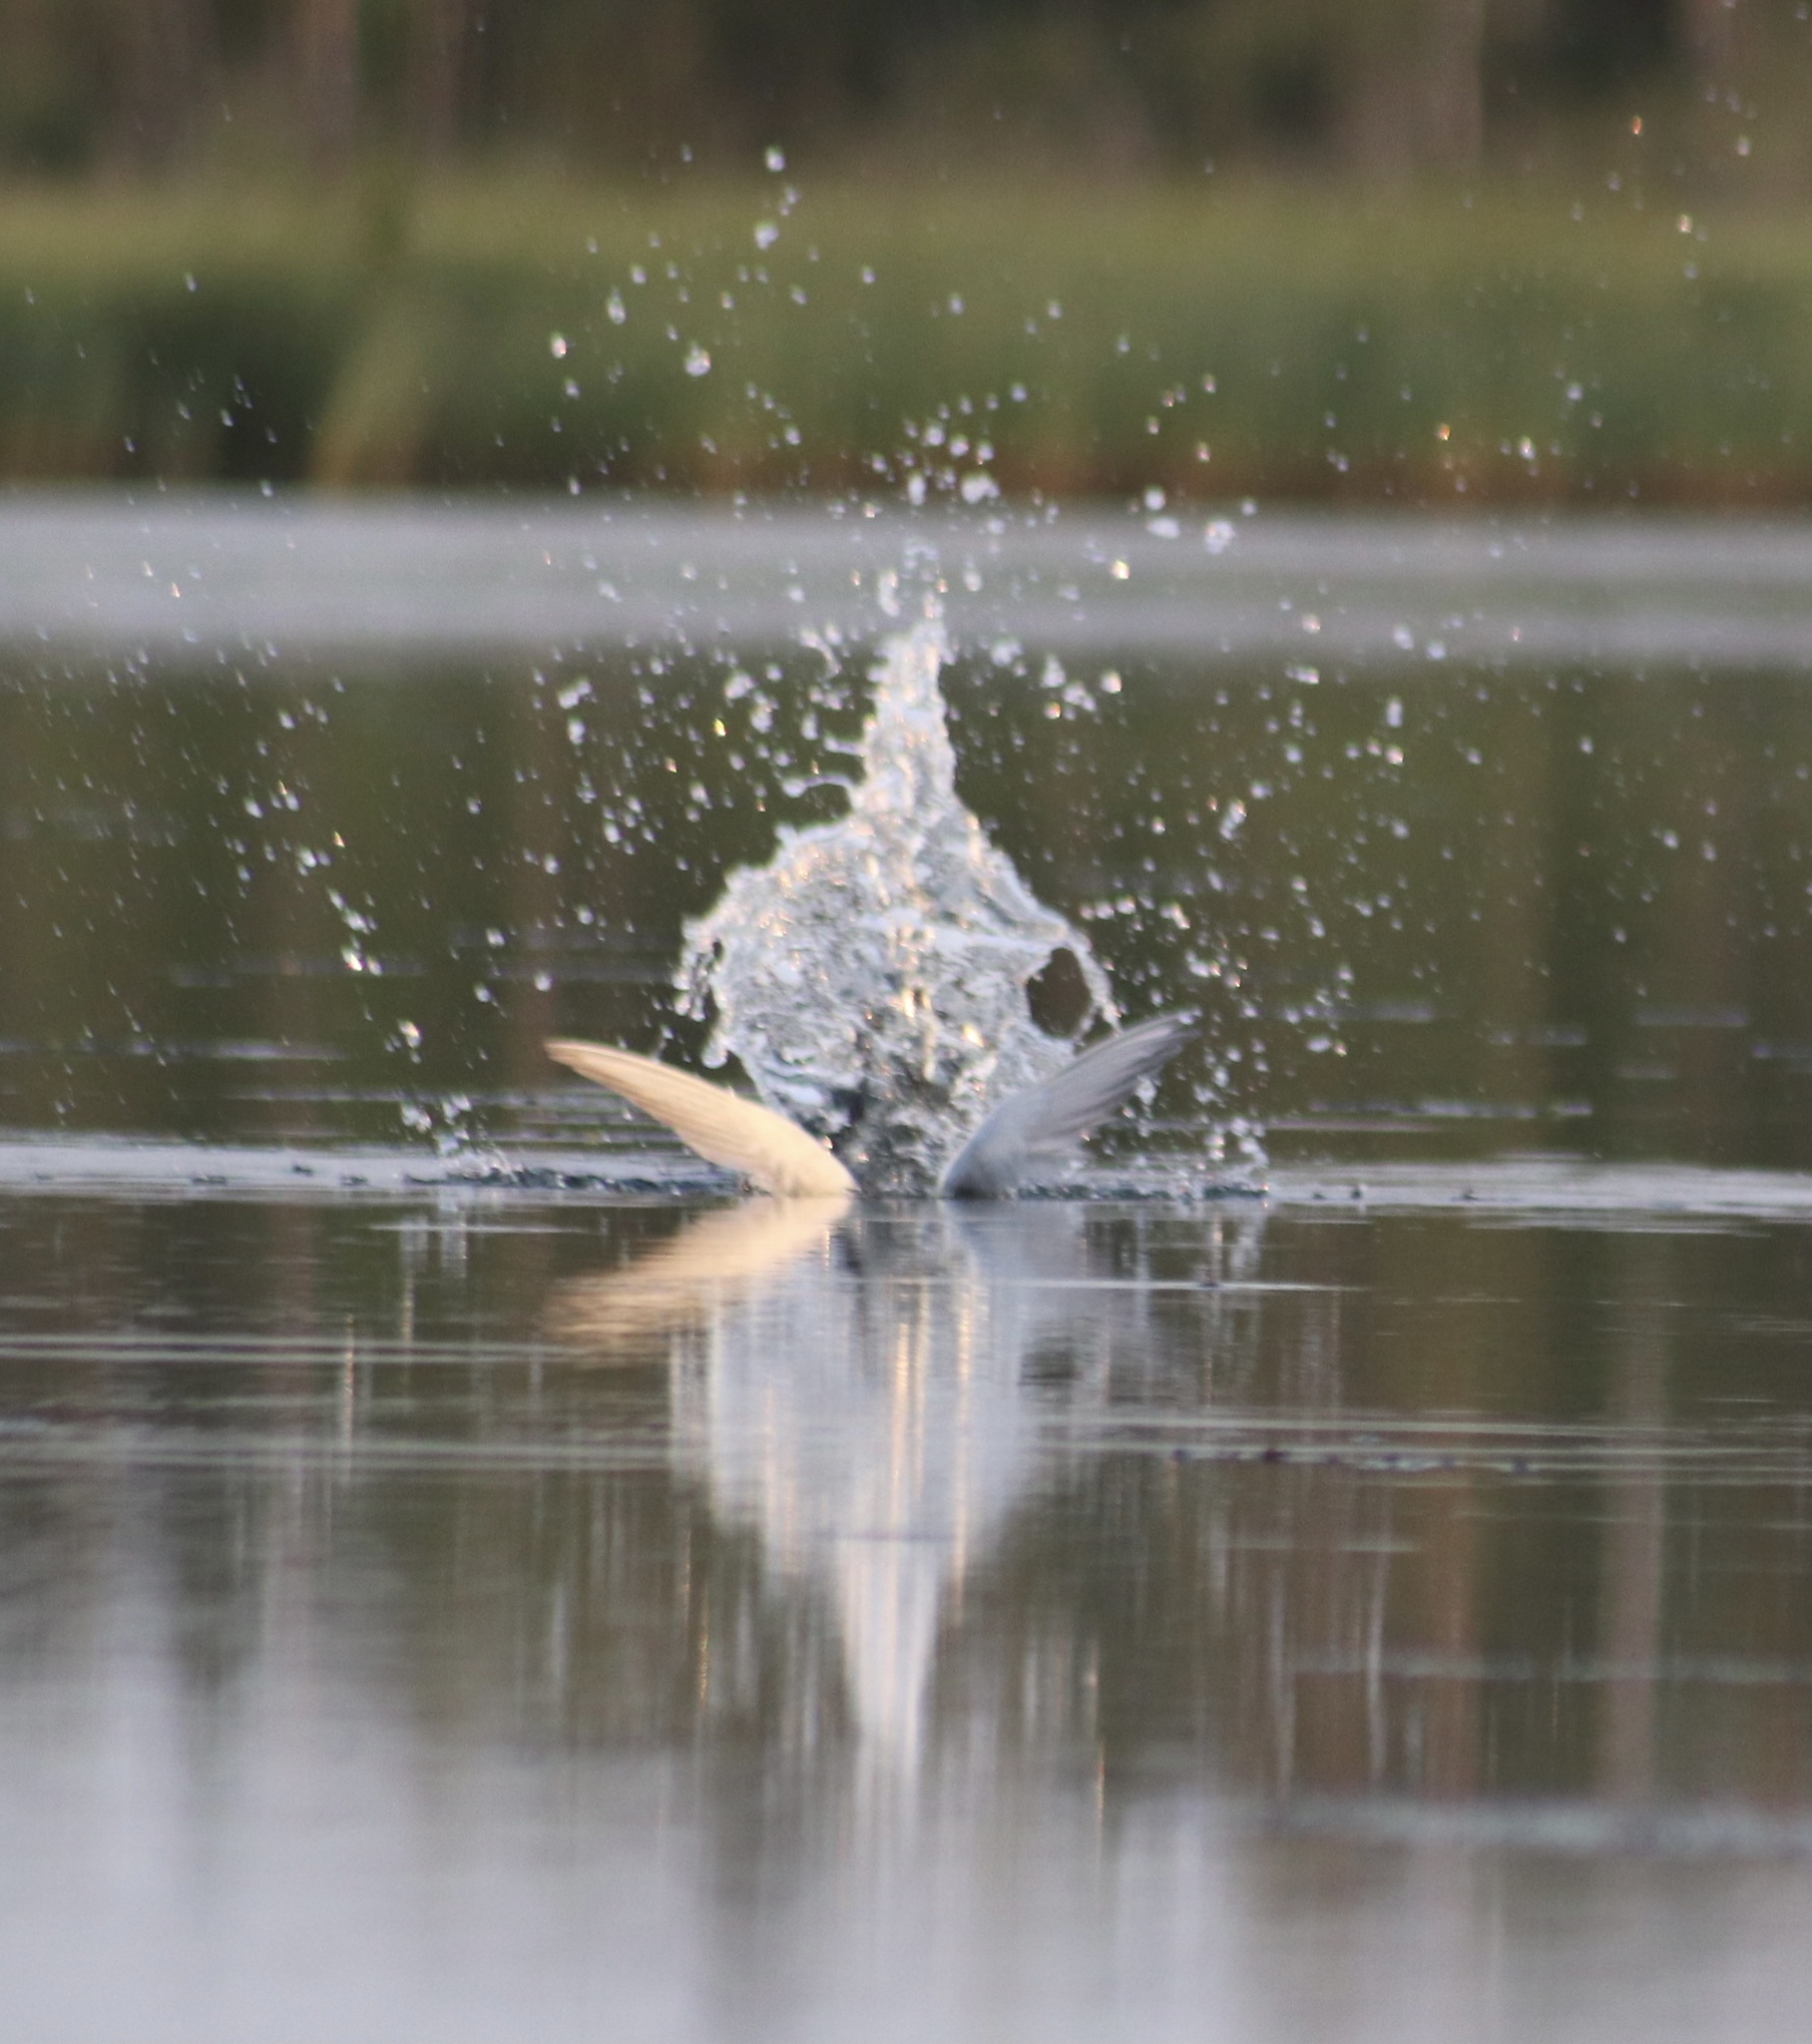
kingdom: Animalia
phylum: Chordata
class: Aves
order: Charadriiformes
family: Laridae
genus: Sterna
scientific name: Sterna forsteri
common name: Forster's tern
